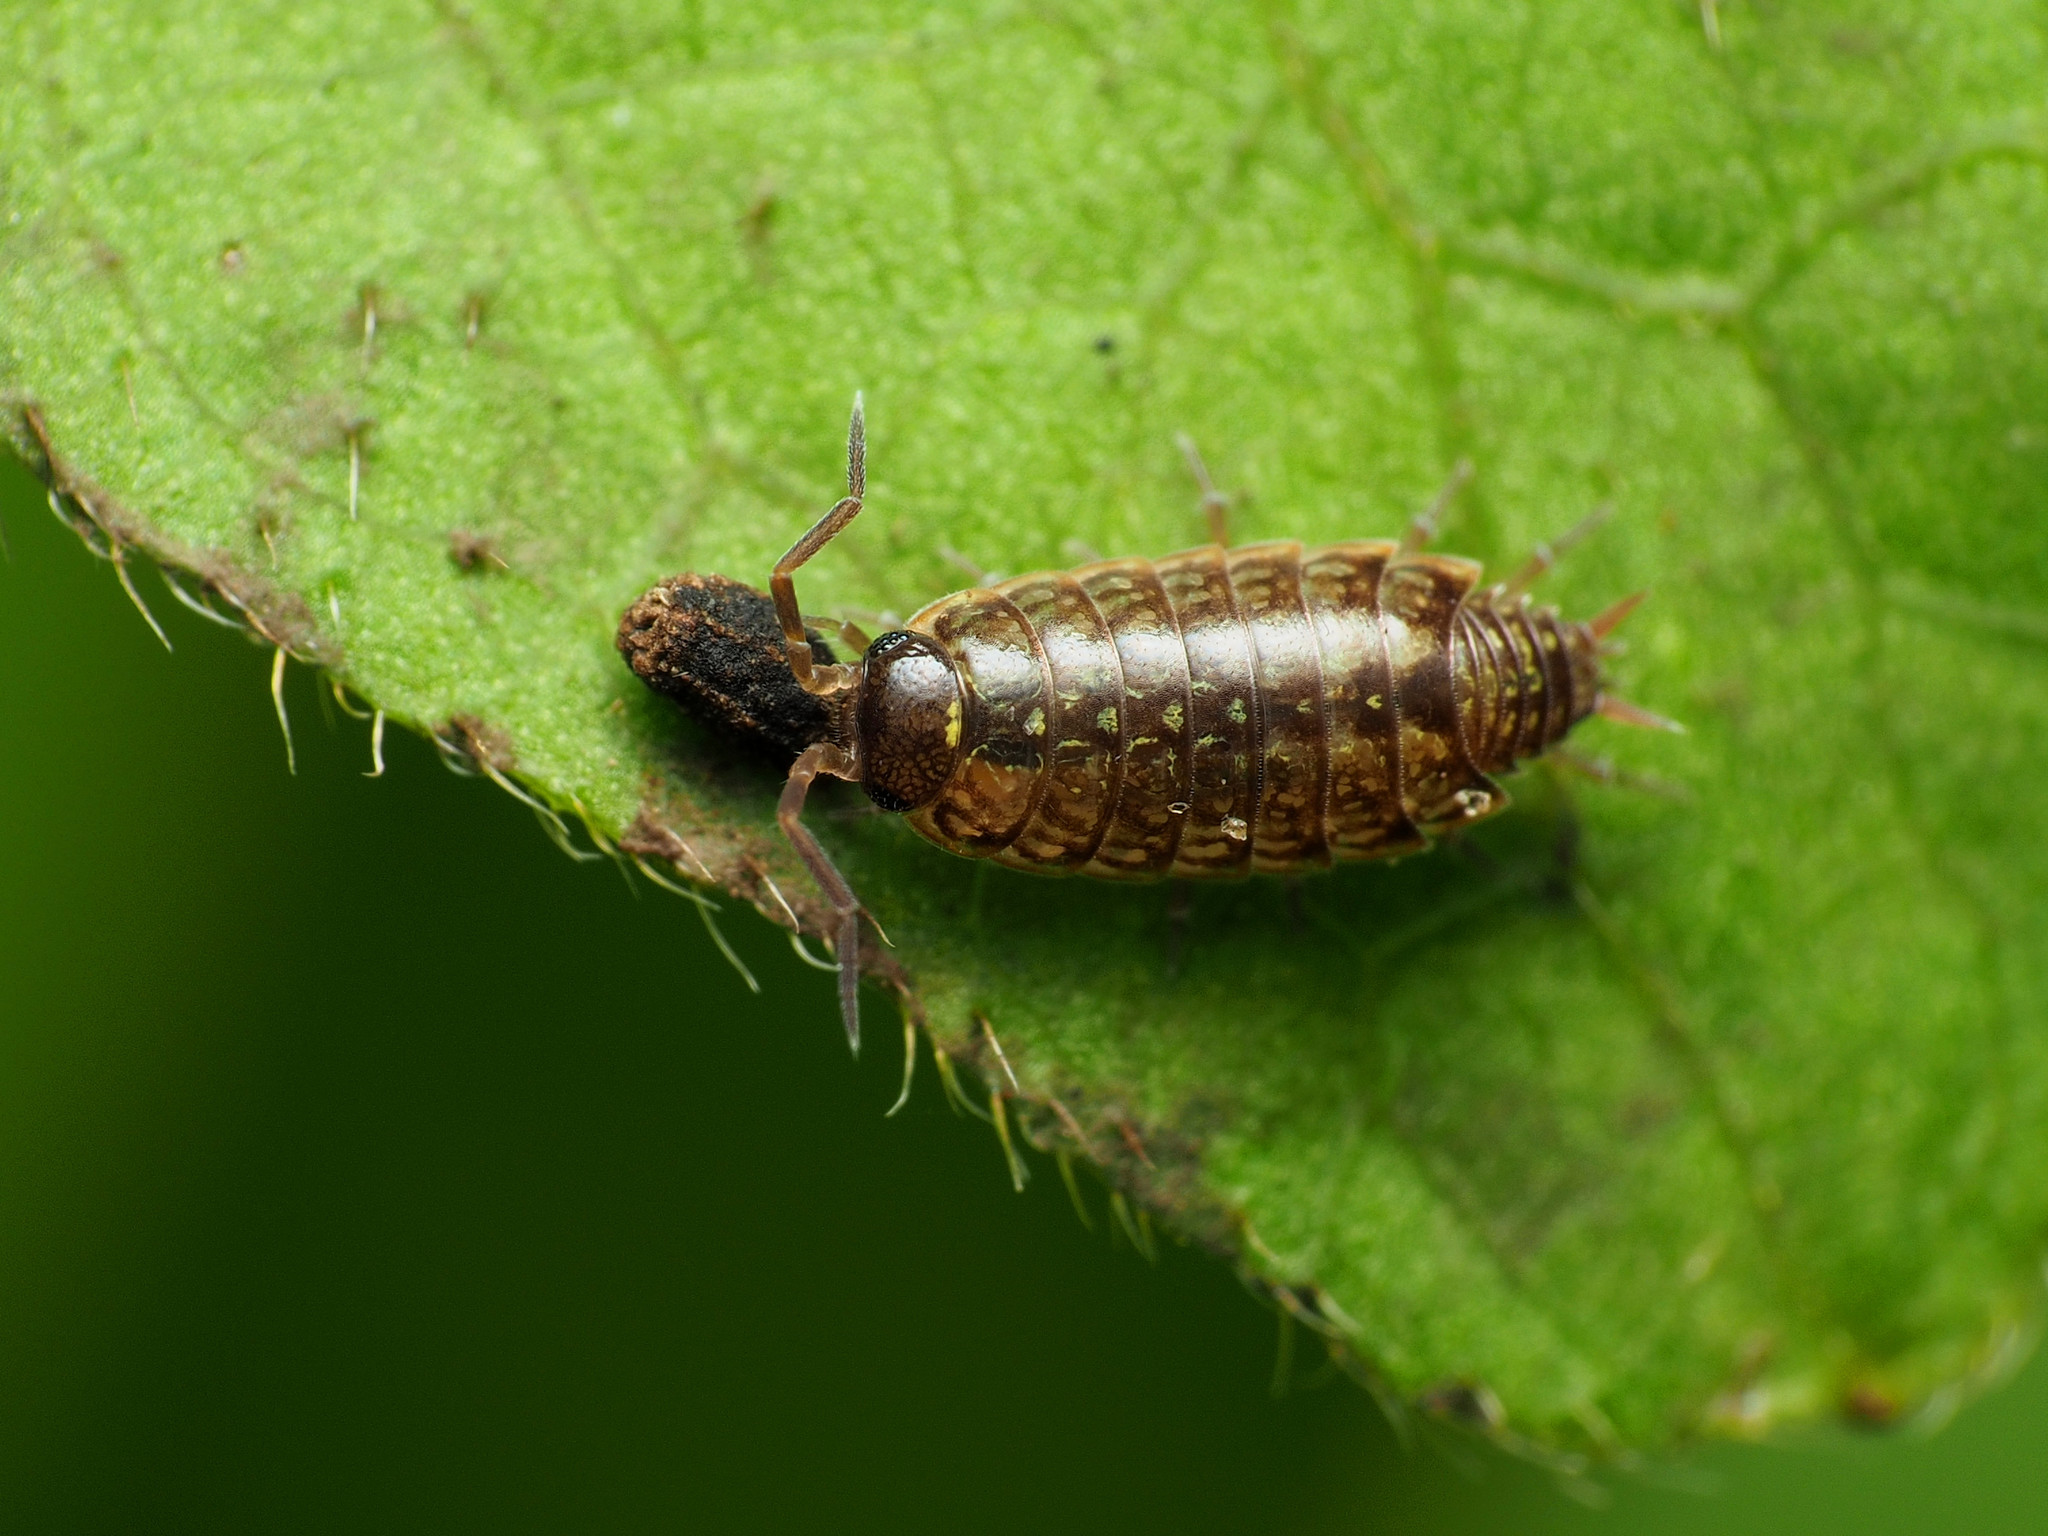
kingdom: Animalia
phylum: Arthropoda
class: Malacostraca
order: Isopoda
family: Philosciidae
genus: Philoscia
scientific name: Philoscia muscorum
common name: Common striped woodlouse
